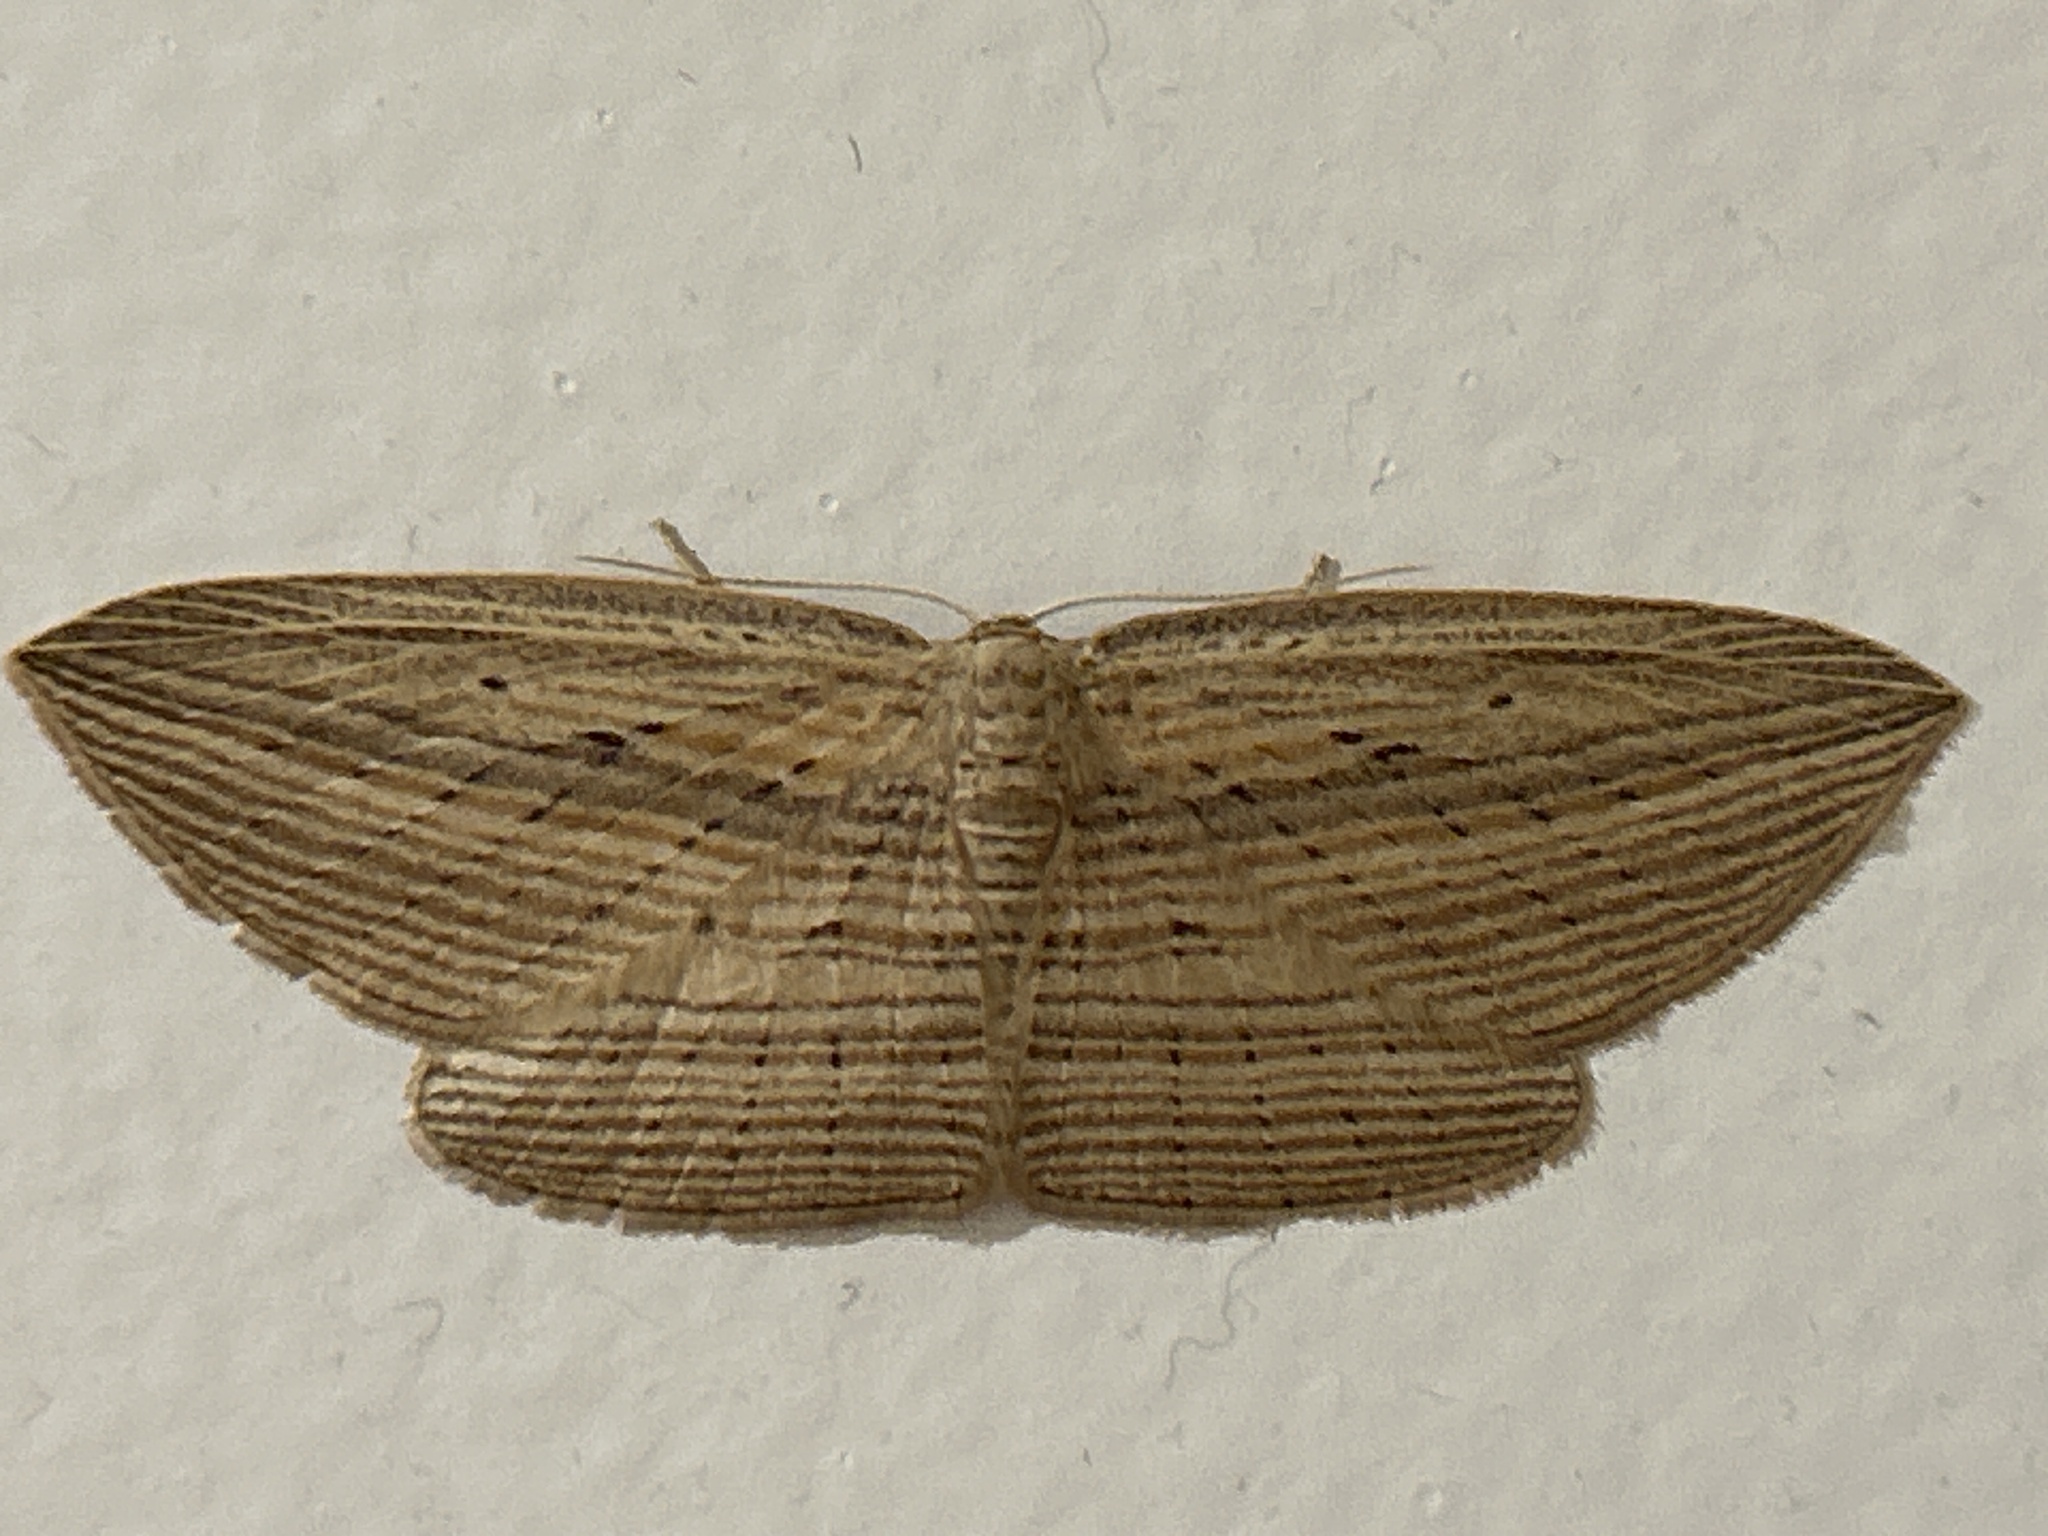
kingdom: Animalia
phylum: Arthropoda
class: Insecta
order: Lepidoptera
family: Geometridae
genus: Epiphryne
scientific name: Epiphryne verriculata
